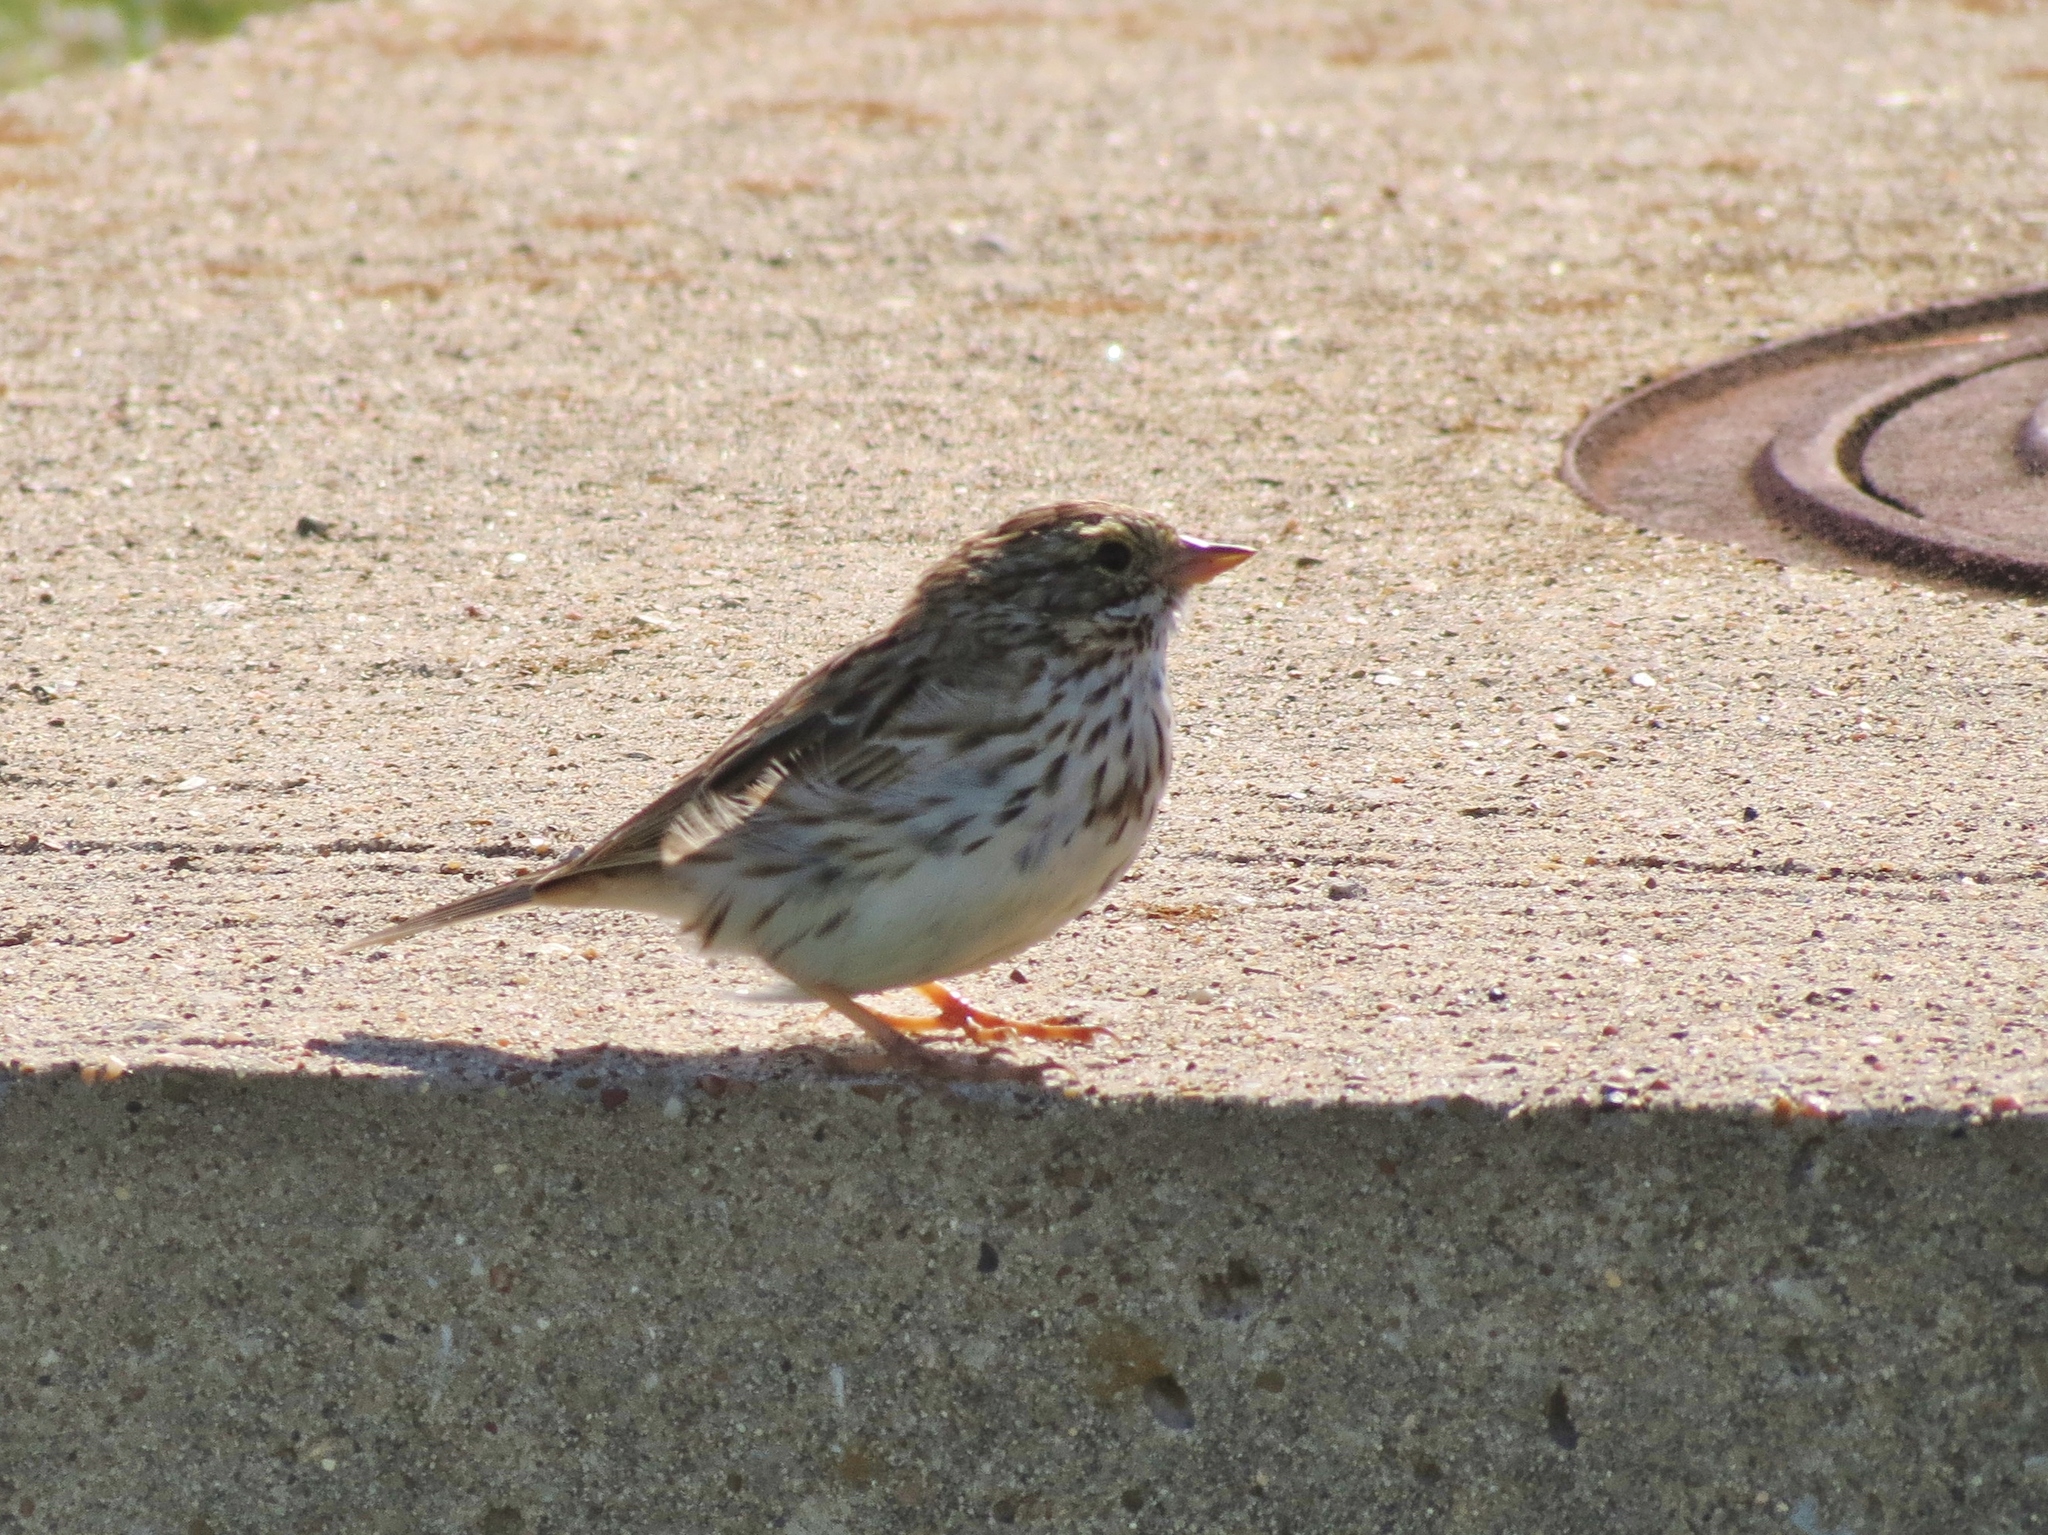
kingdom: Animalia
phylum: Chordata
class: Aves
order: Passeriformes
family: Passerellidae
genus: Passerculus
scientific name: Passerculus sandwichensis
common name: Savannah sparrow
